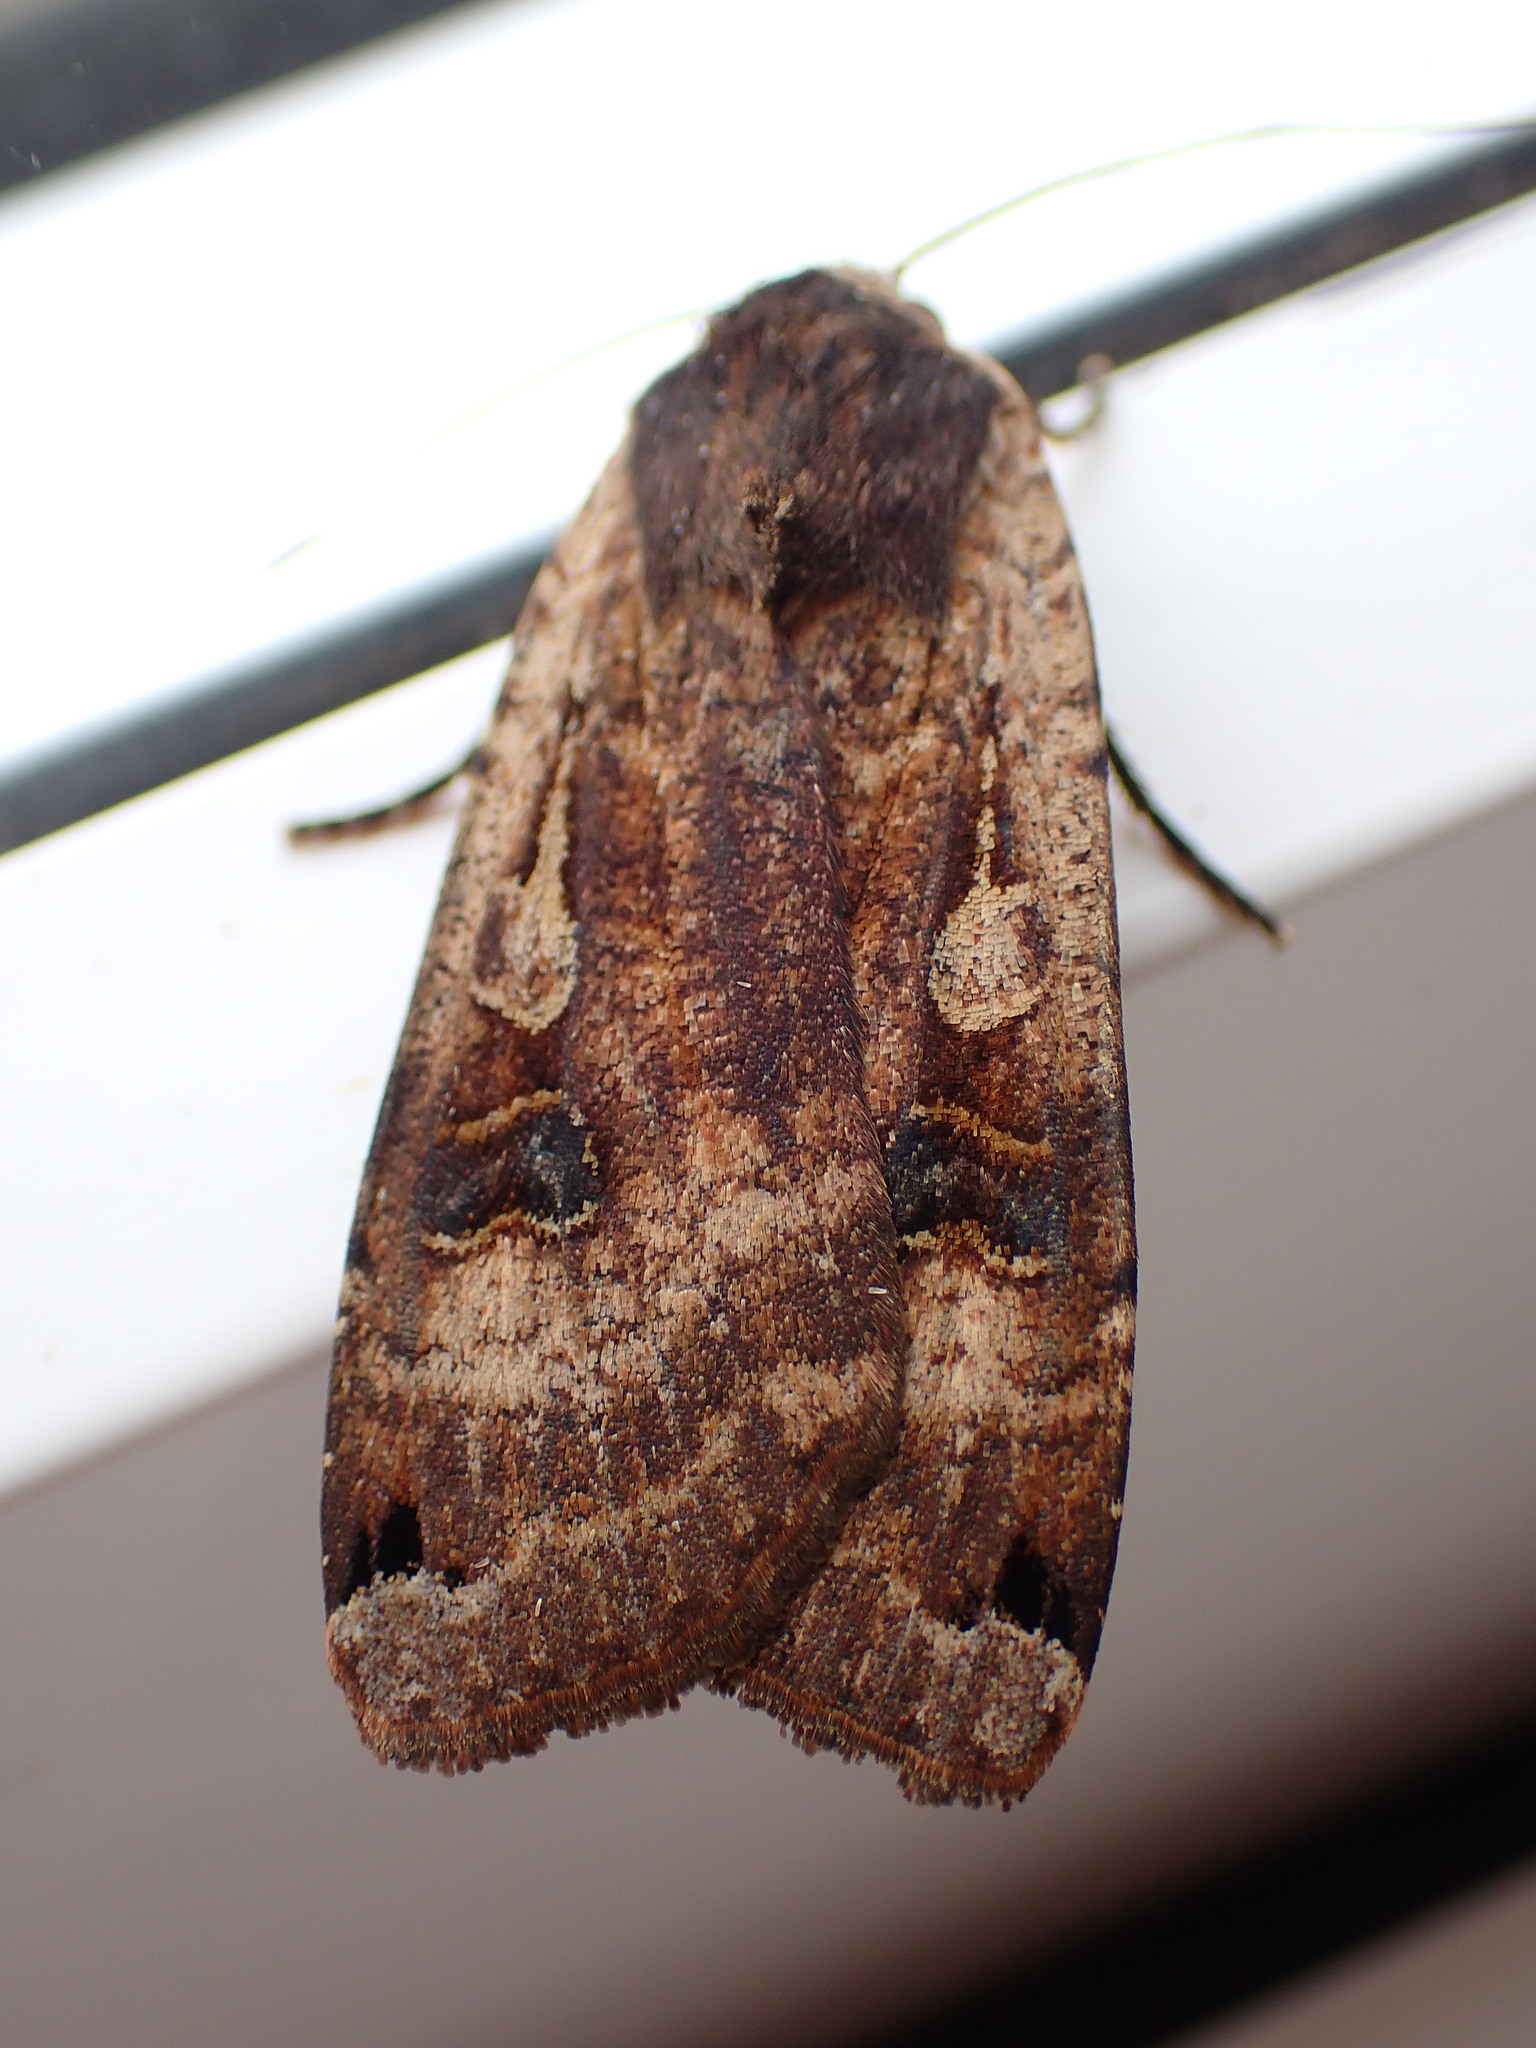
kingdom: Animalia
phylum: Arthropoda
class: Insecta
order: Lepidoptera
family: Noctuidae
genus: Noctua
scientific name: Noctua pronuba
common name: Large yellow underwing
